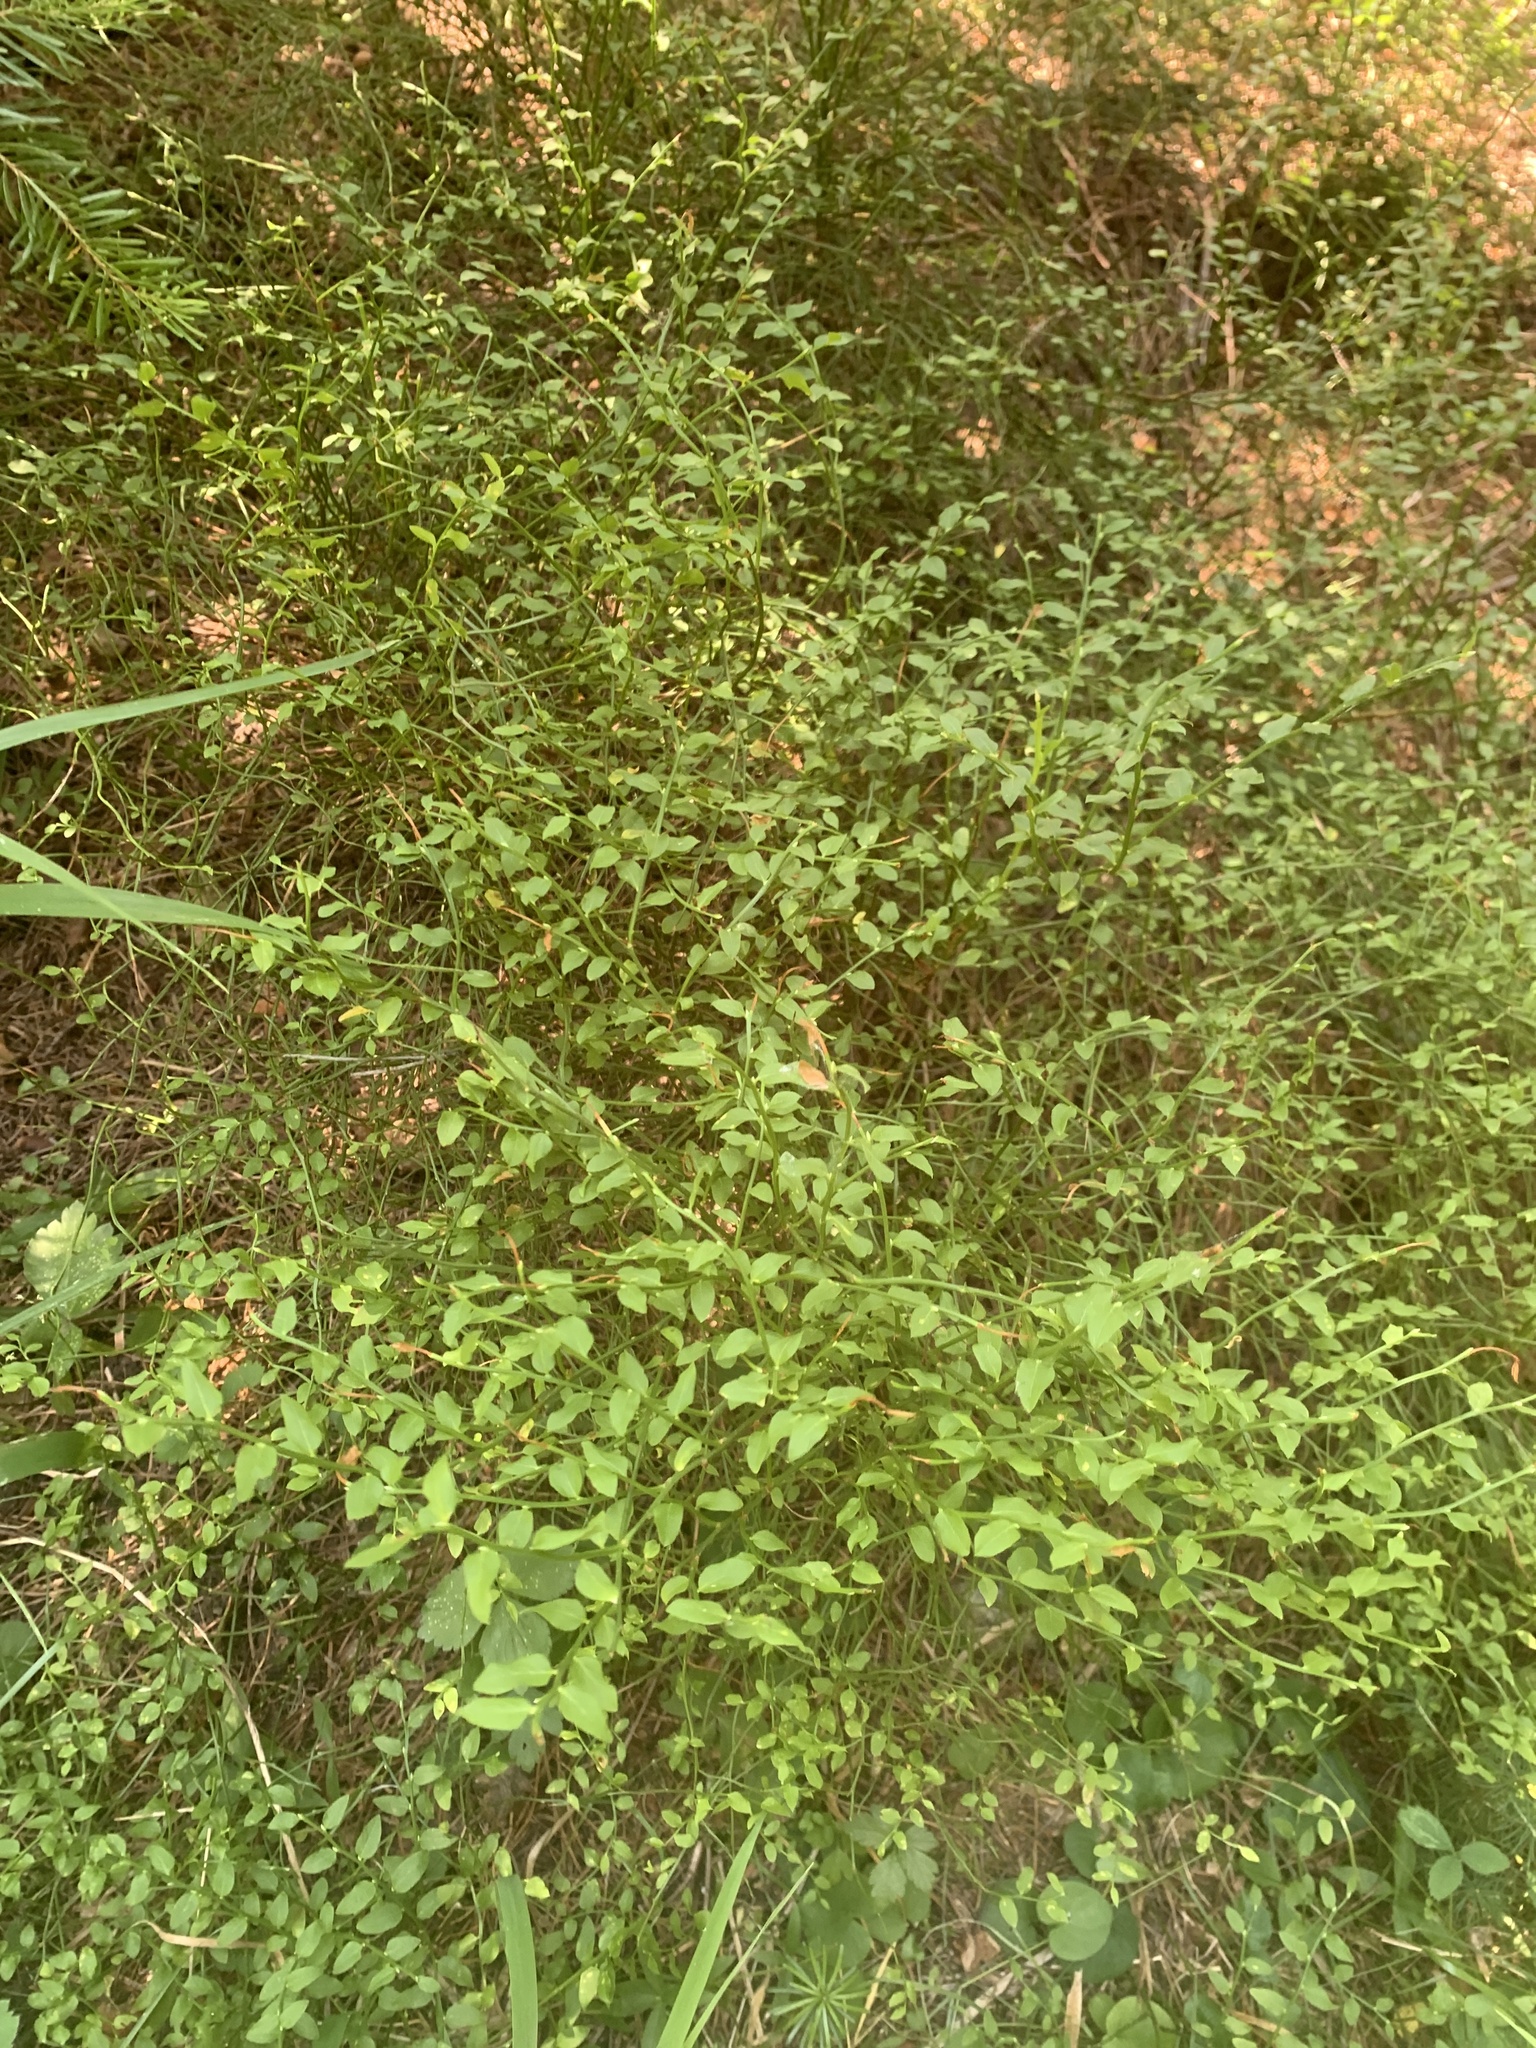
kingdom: Plantae
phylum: Tracheophyta
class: Magnoliopsida
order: Ericales
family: Ericaceae
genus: Vaccinium
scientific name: Vaccinium myrtillus
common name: Bilberry
